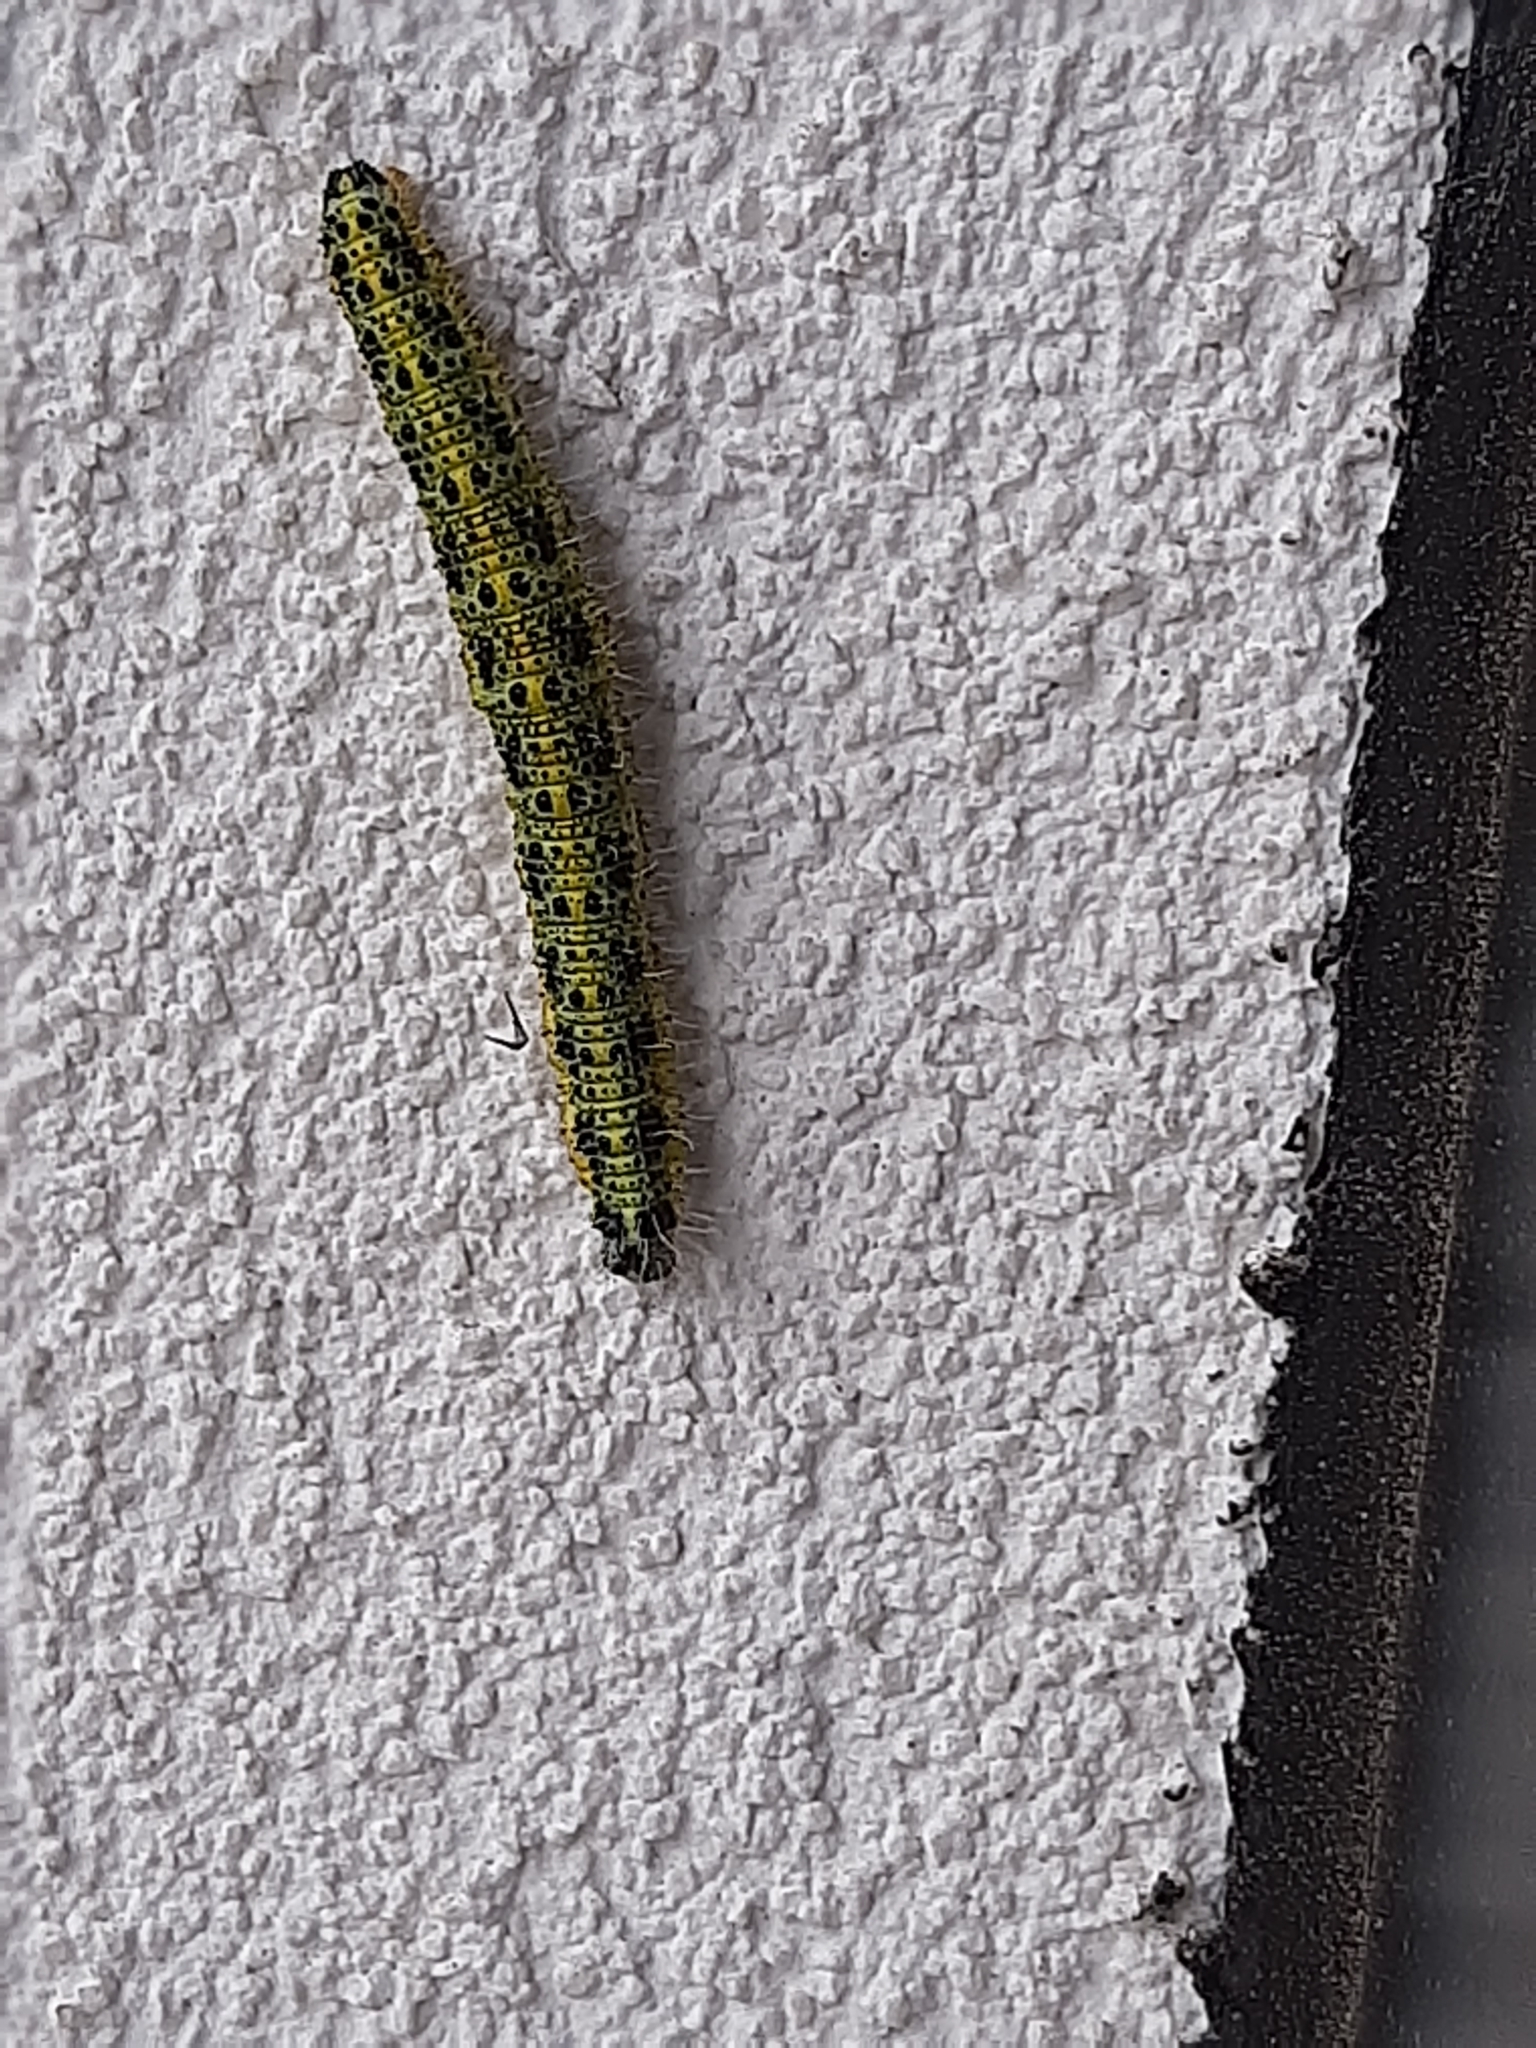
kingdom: Animalia
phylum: Arthropoda
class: Insecta
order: Lepidoptera
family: Pieridae
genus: Pieris
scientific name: Pieris brassicae
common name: Large white
